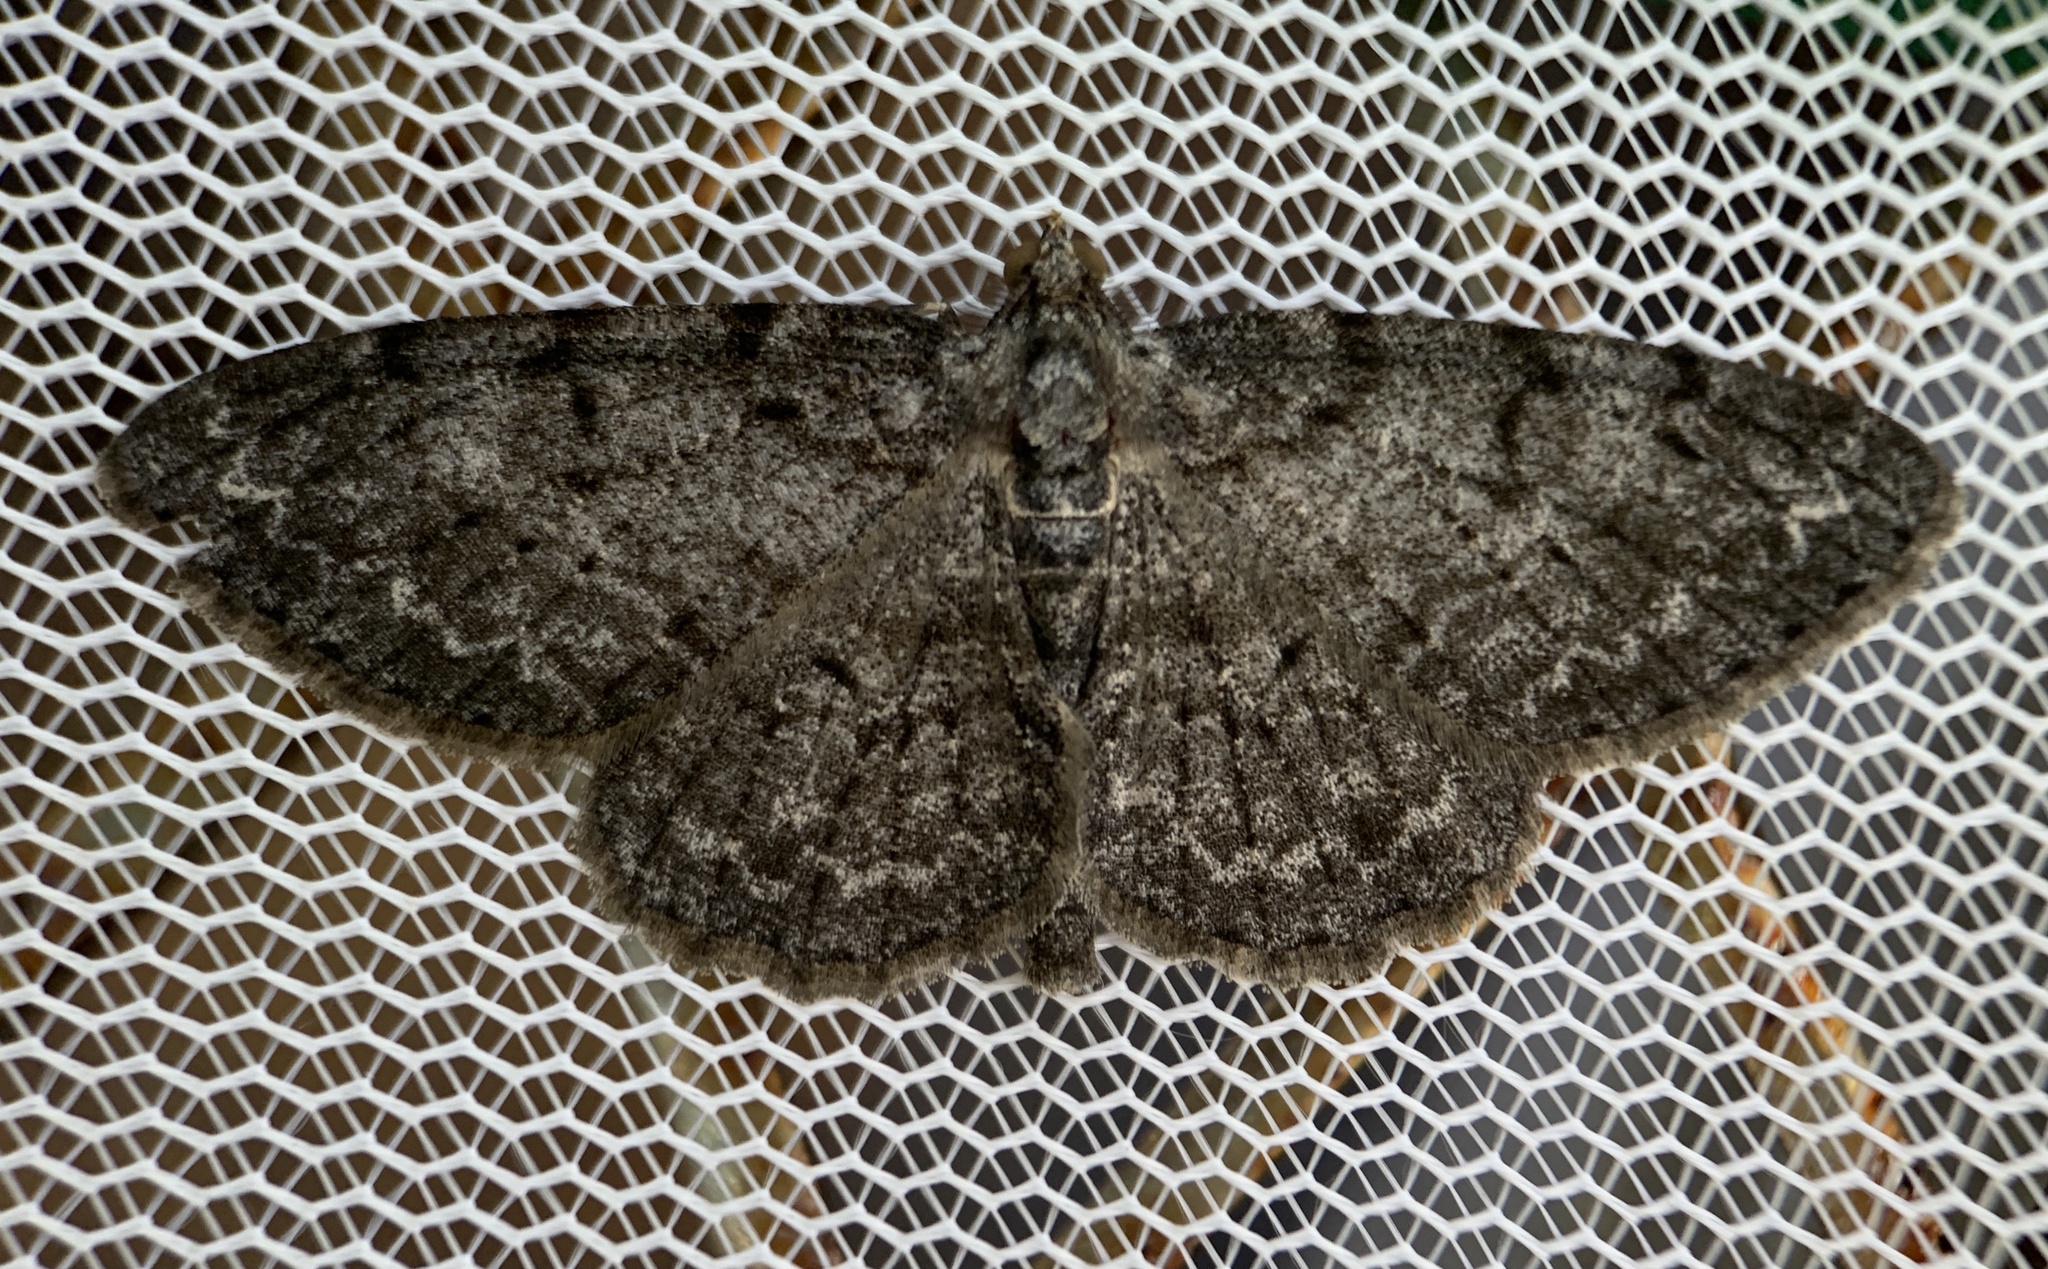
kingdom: Animalia
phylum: Arthropoda
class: Insecta
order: Lepidoptera
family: Geometridae
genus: Protoboarmia
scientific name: Protoboarmia porcelaria
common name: Porcelain gray
